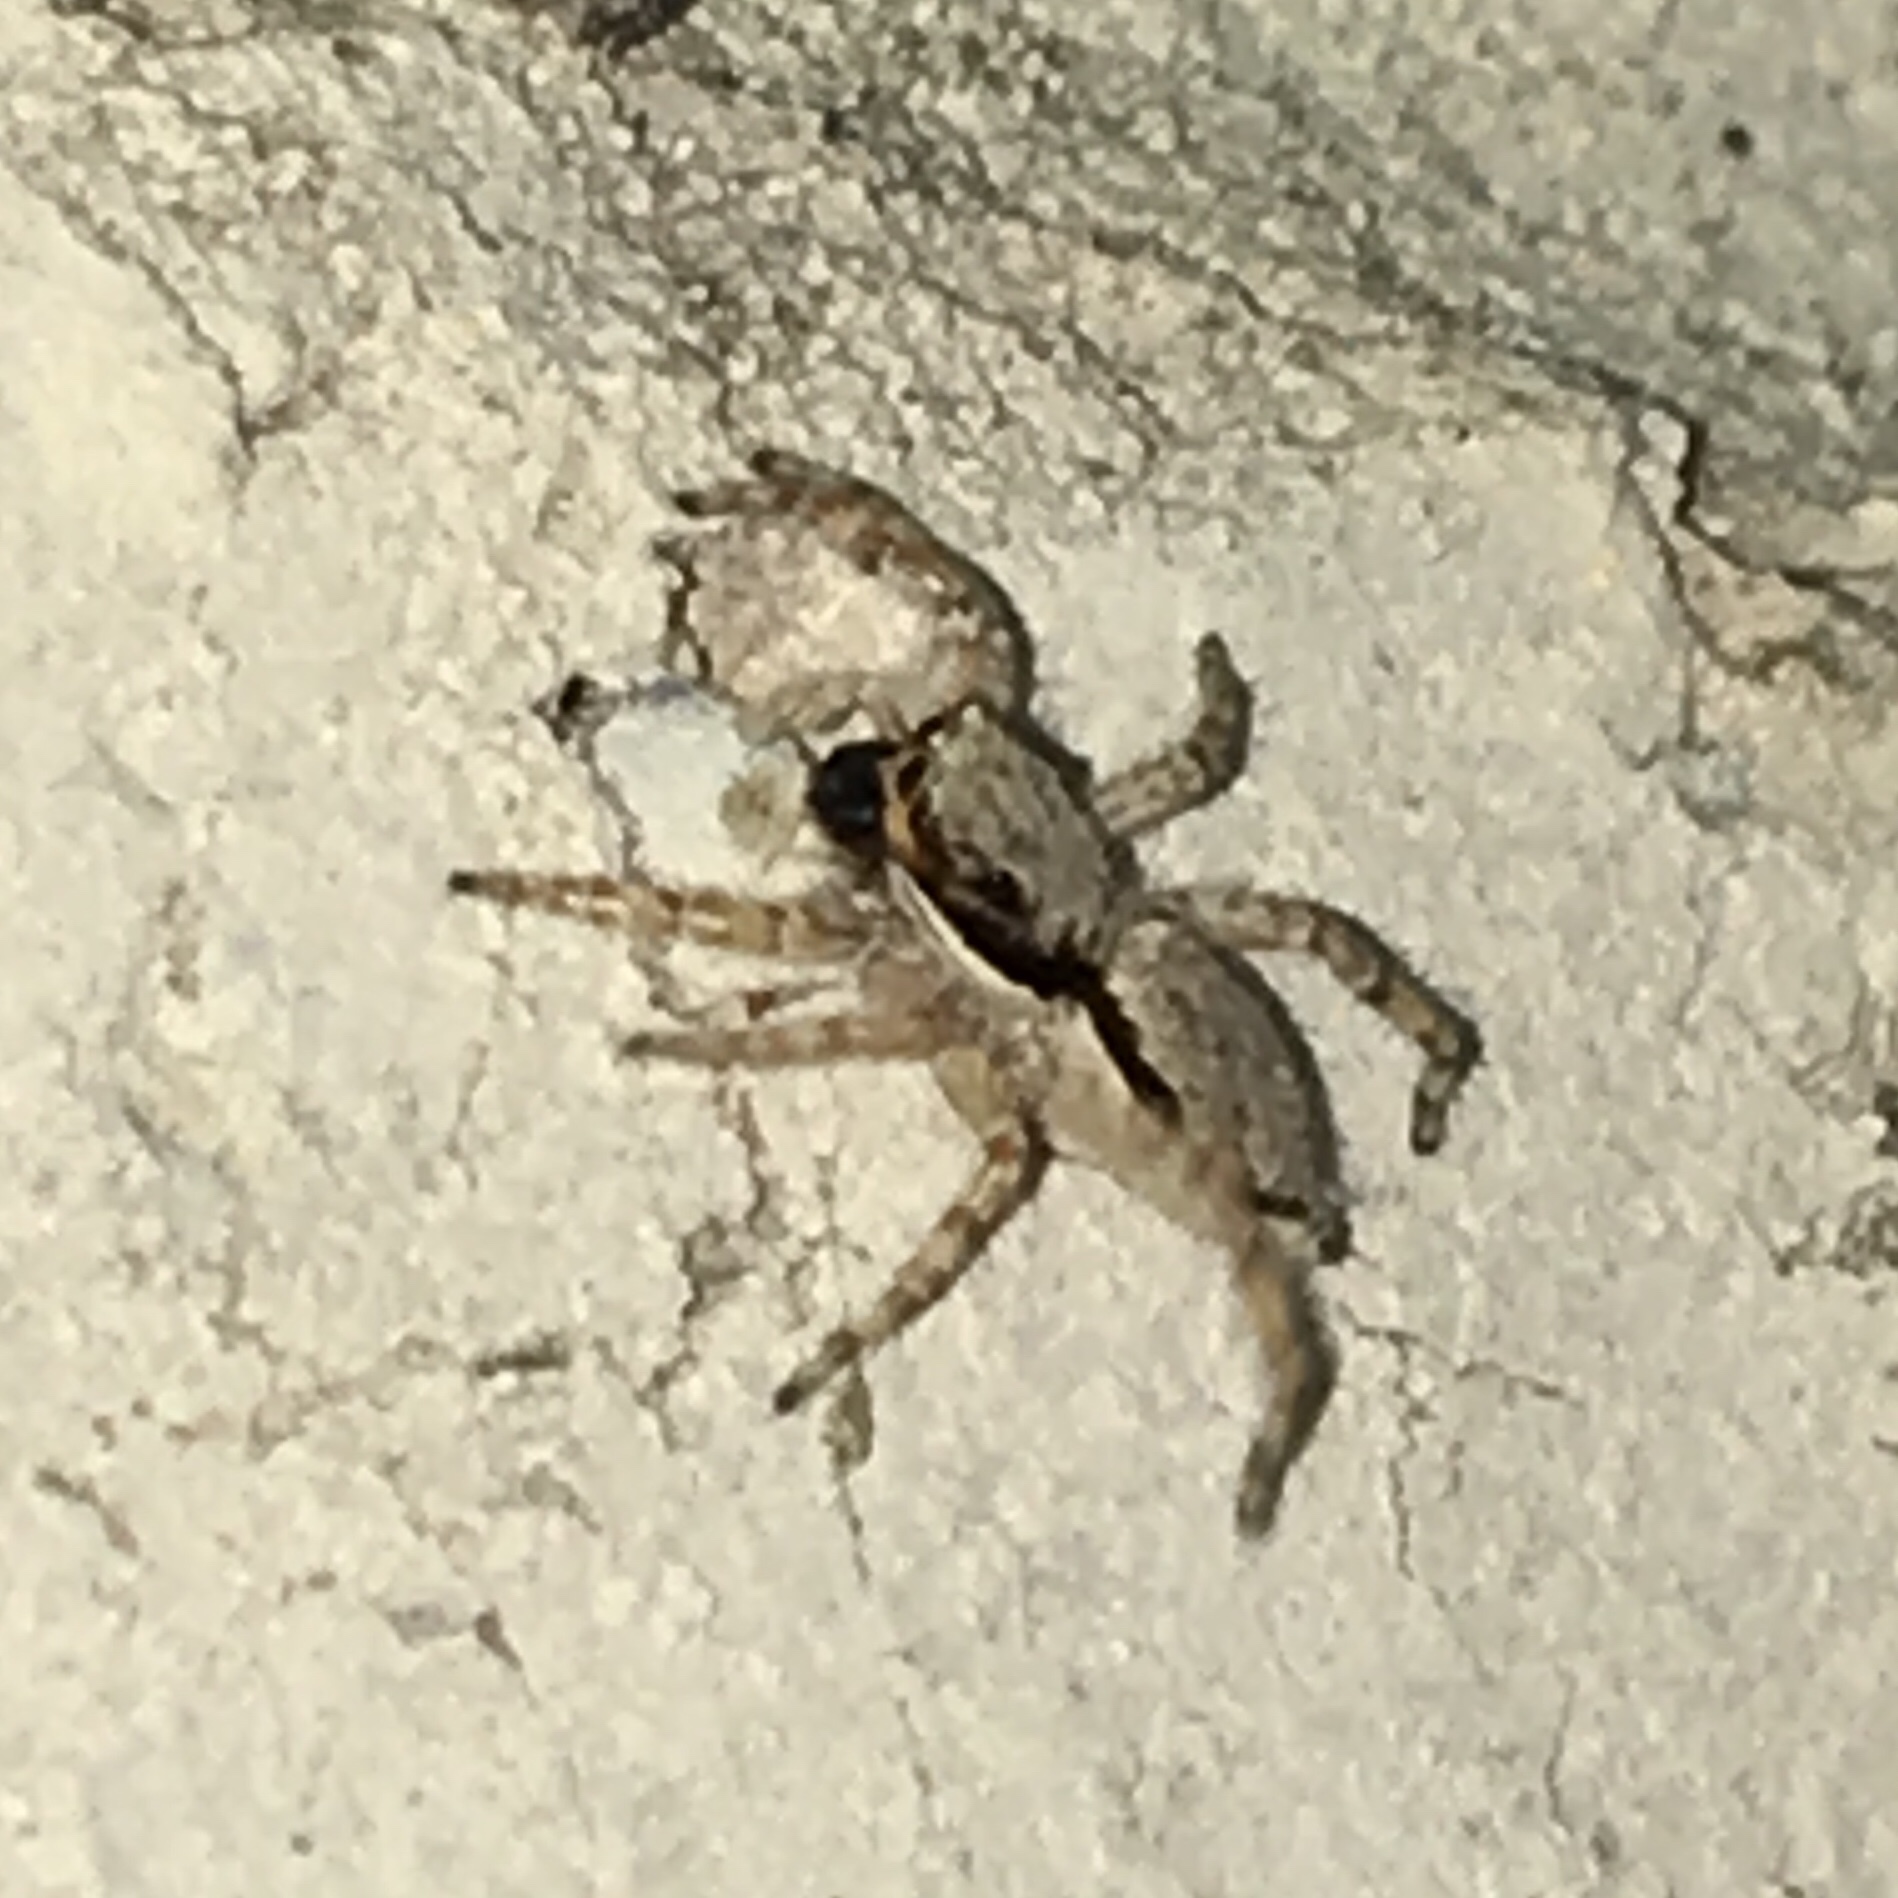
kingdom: Animalia
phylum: Arthropoda
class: Arachnida
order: Araneae
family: Salticidae
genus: Menemerus
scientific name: Menemerus bivittatus
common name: Gray wall jumper
